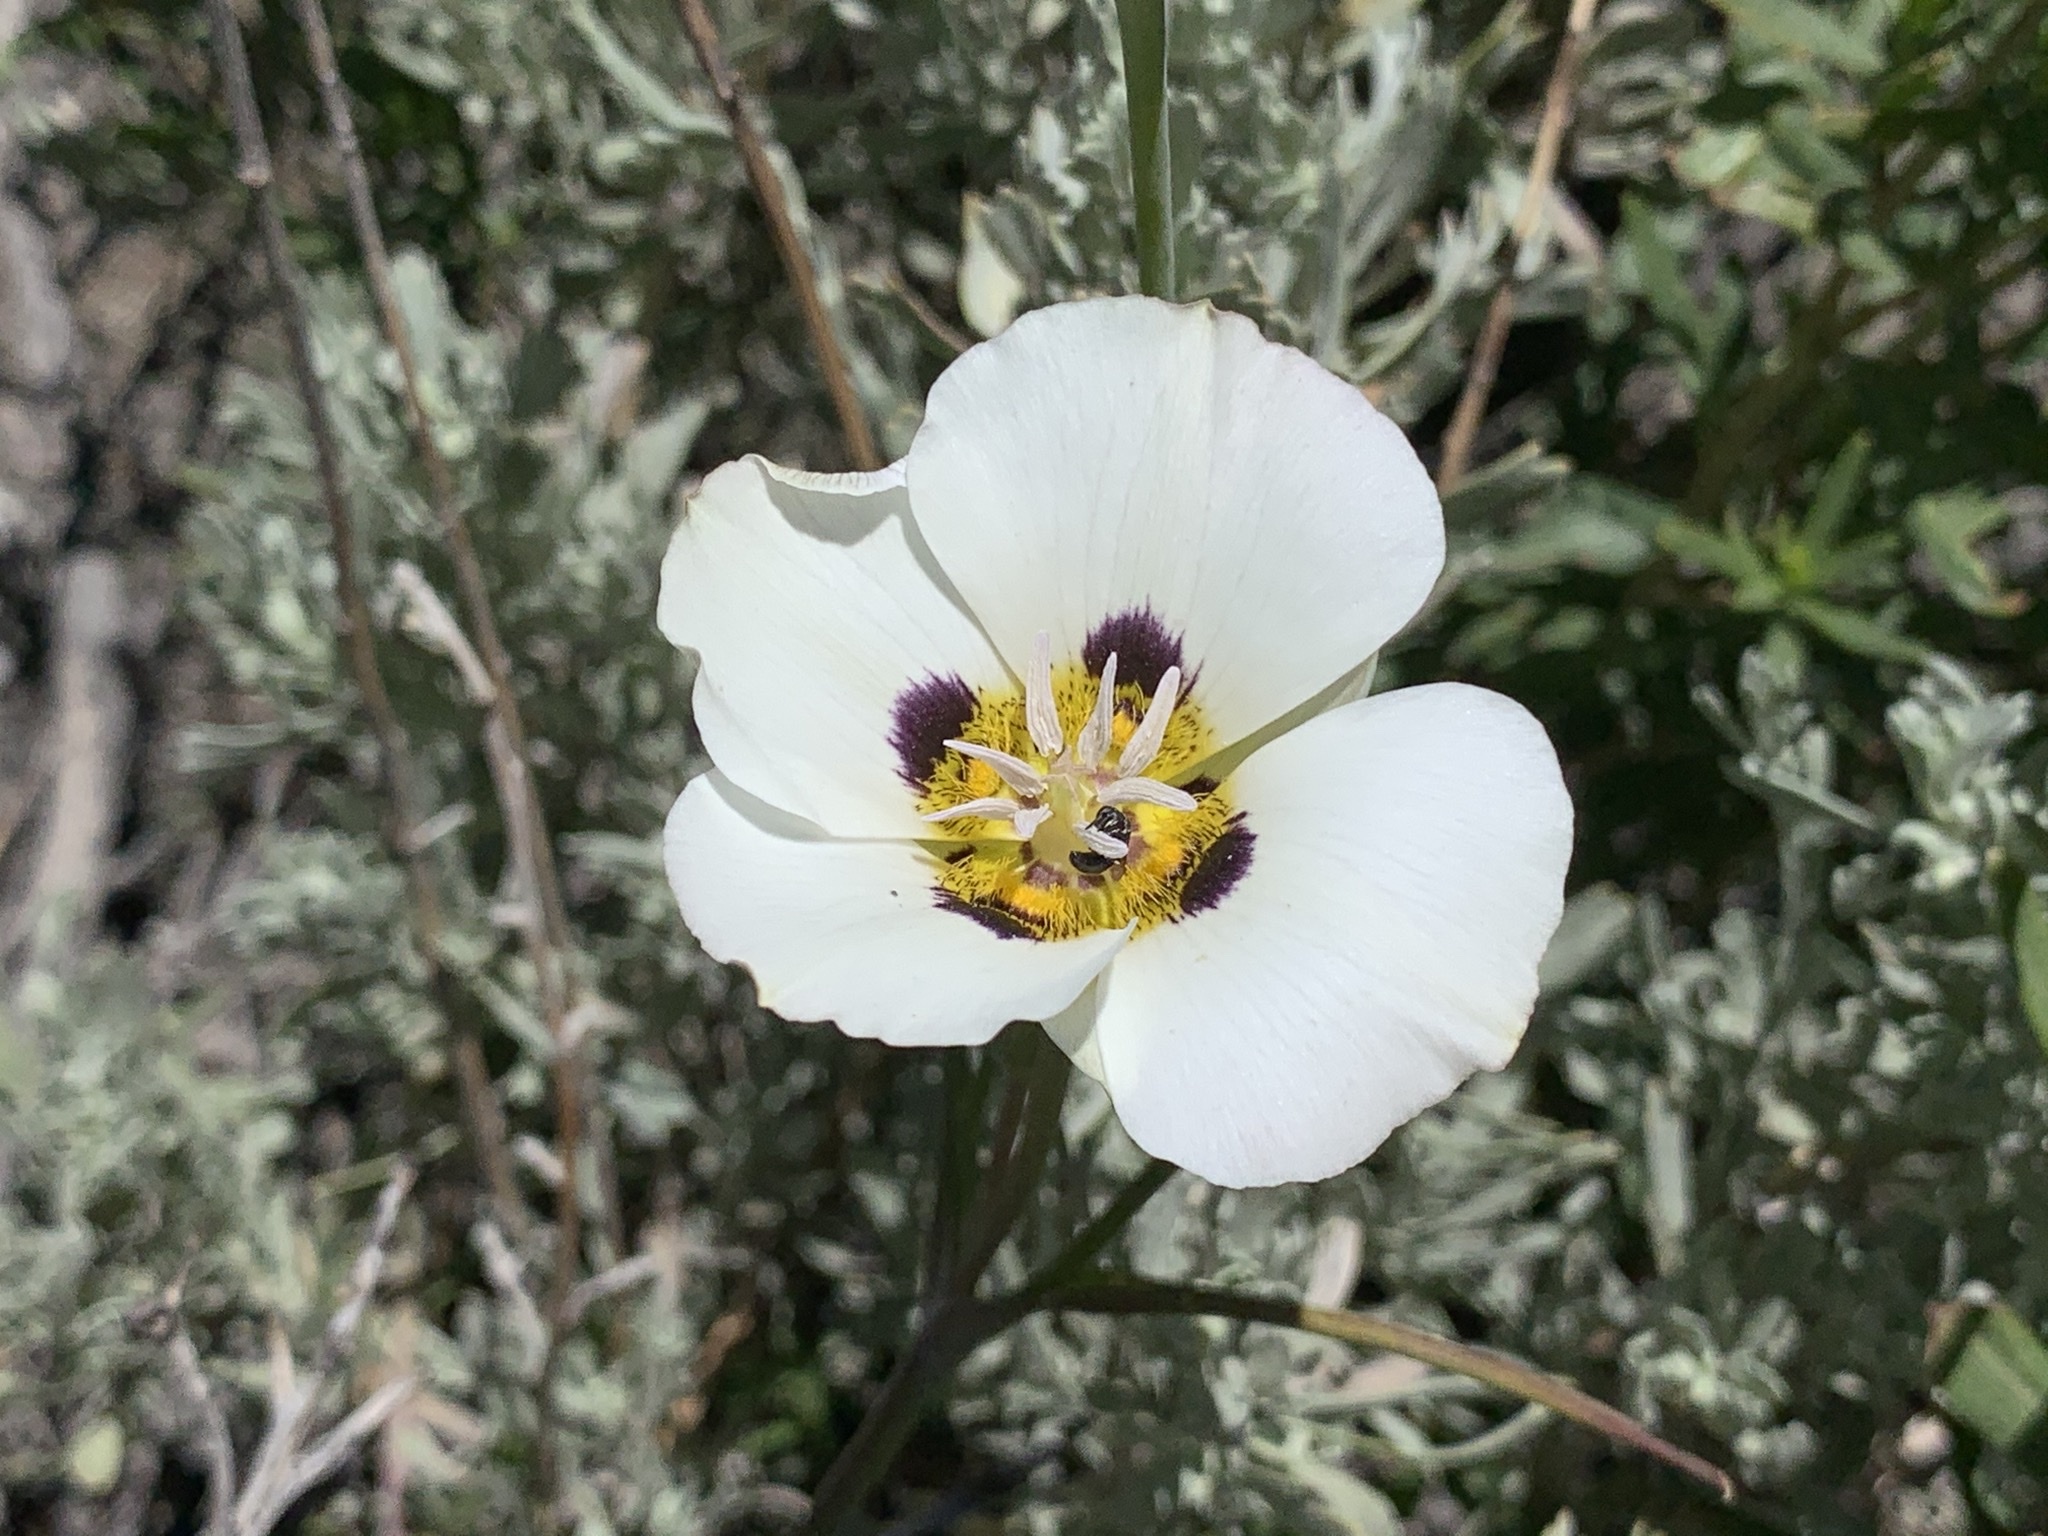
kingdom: Plantae
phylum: Tracheophyta
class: Liliopsida
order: Liliales
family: Liliaceae
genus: Calochortus
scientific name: Calochortus leichtlinii
